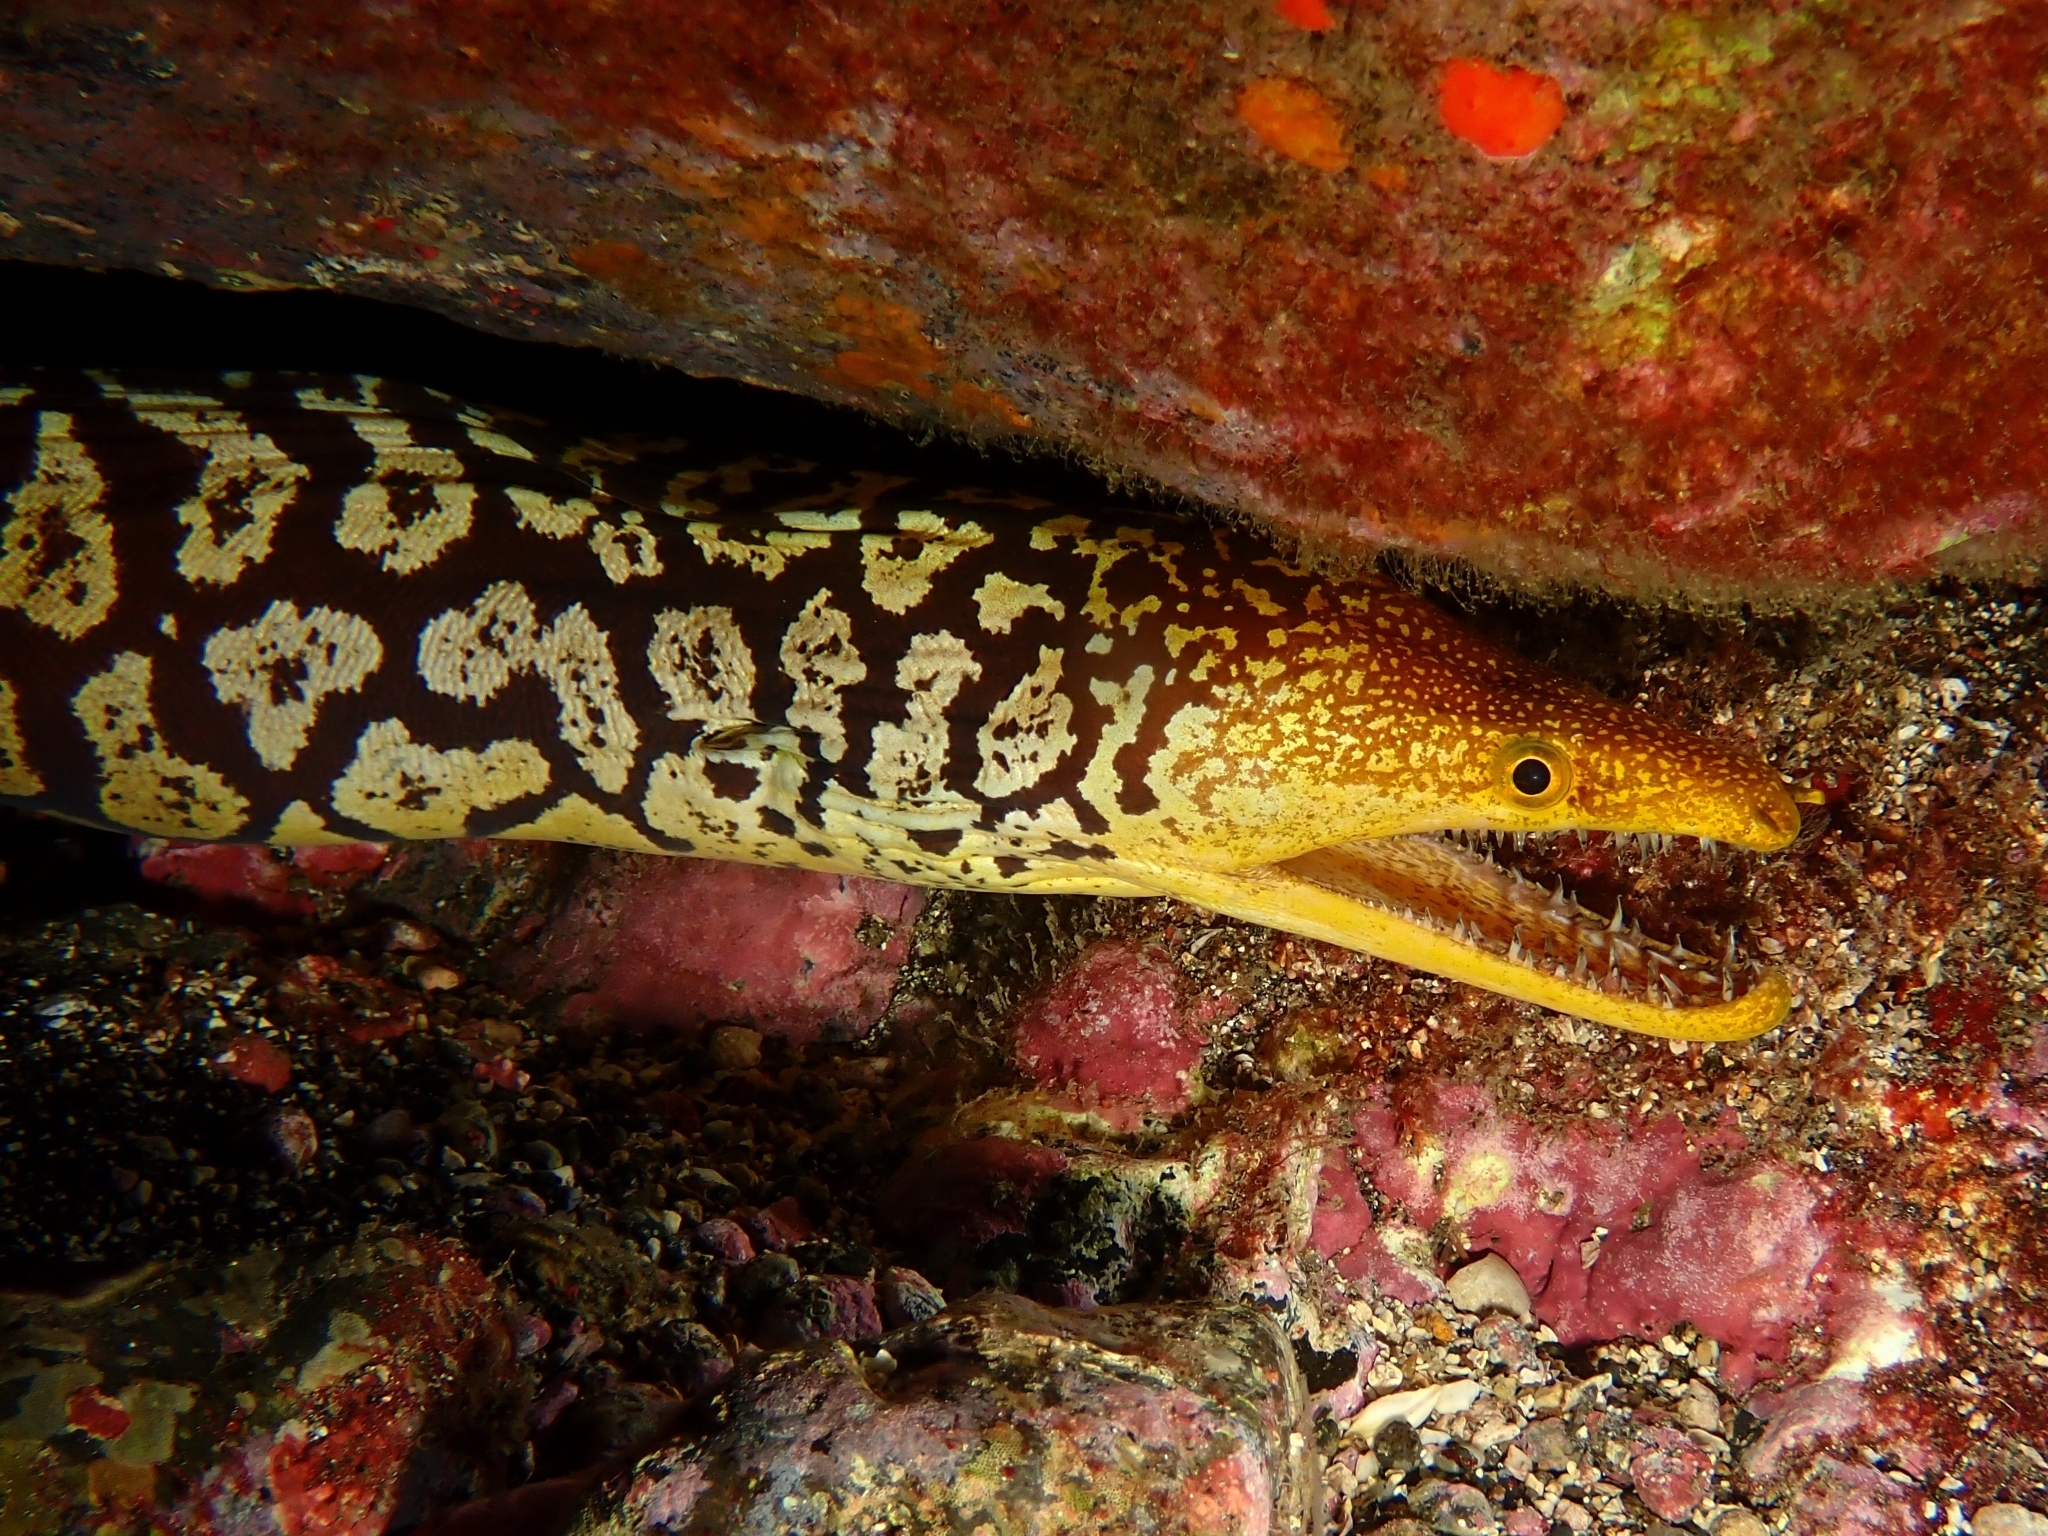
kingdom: Animalia
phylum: Chordata
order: Anguilliformes
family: Muraenidae
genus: Enchelycore
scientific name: Enchelycore anatina
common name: Fangtooth moray
